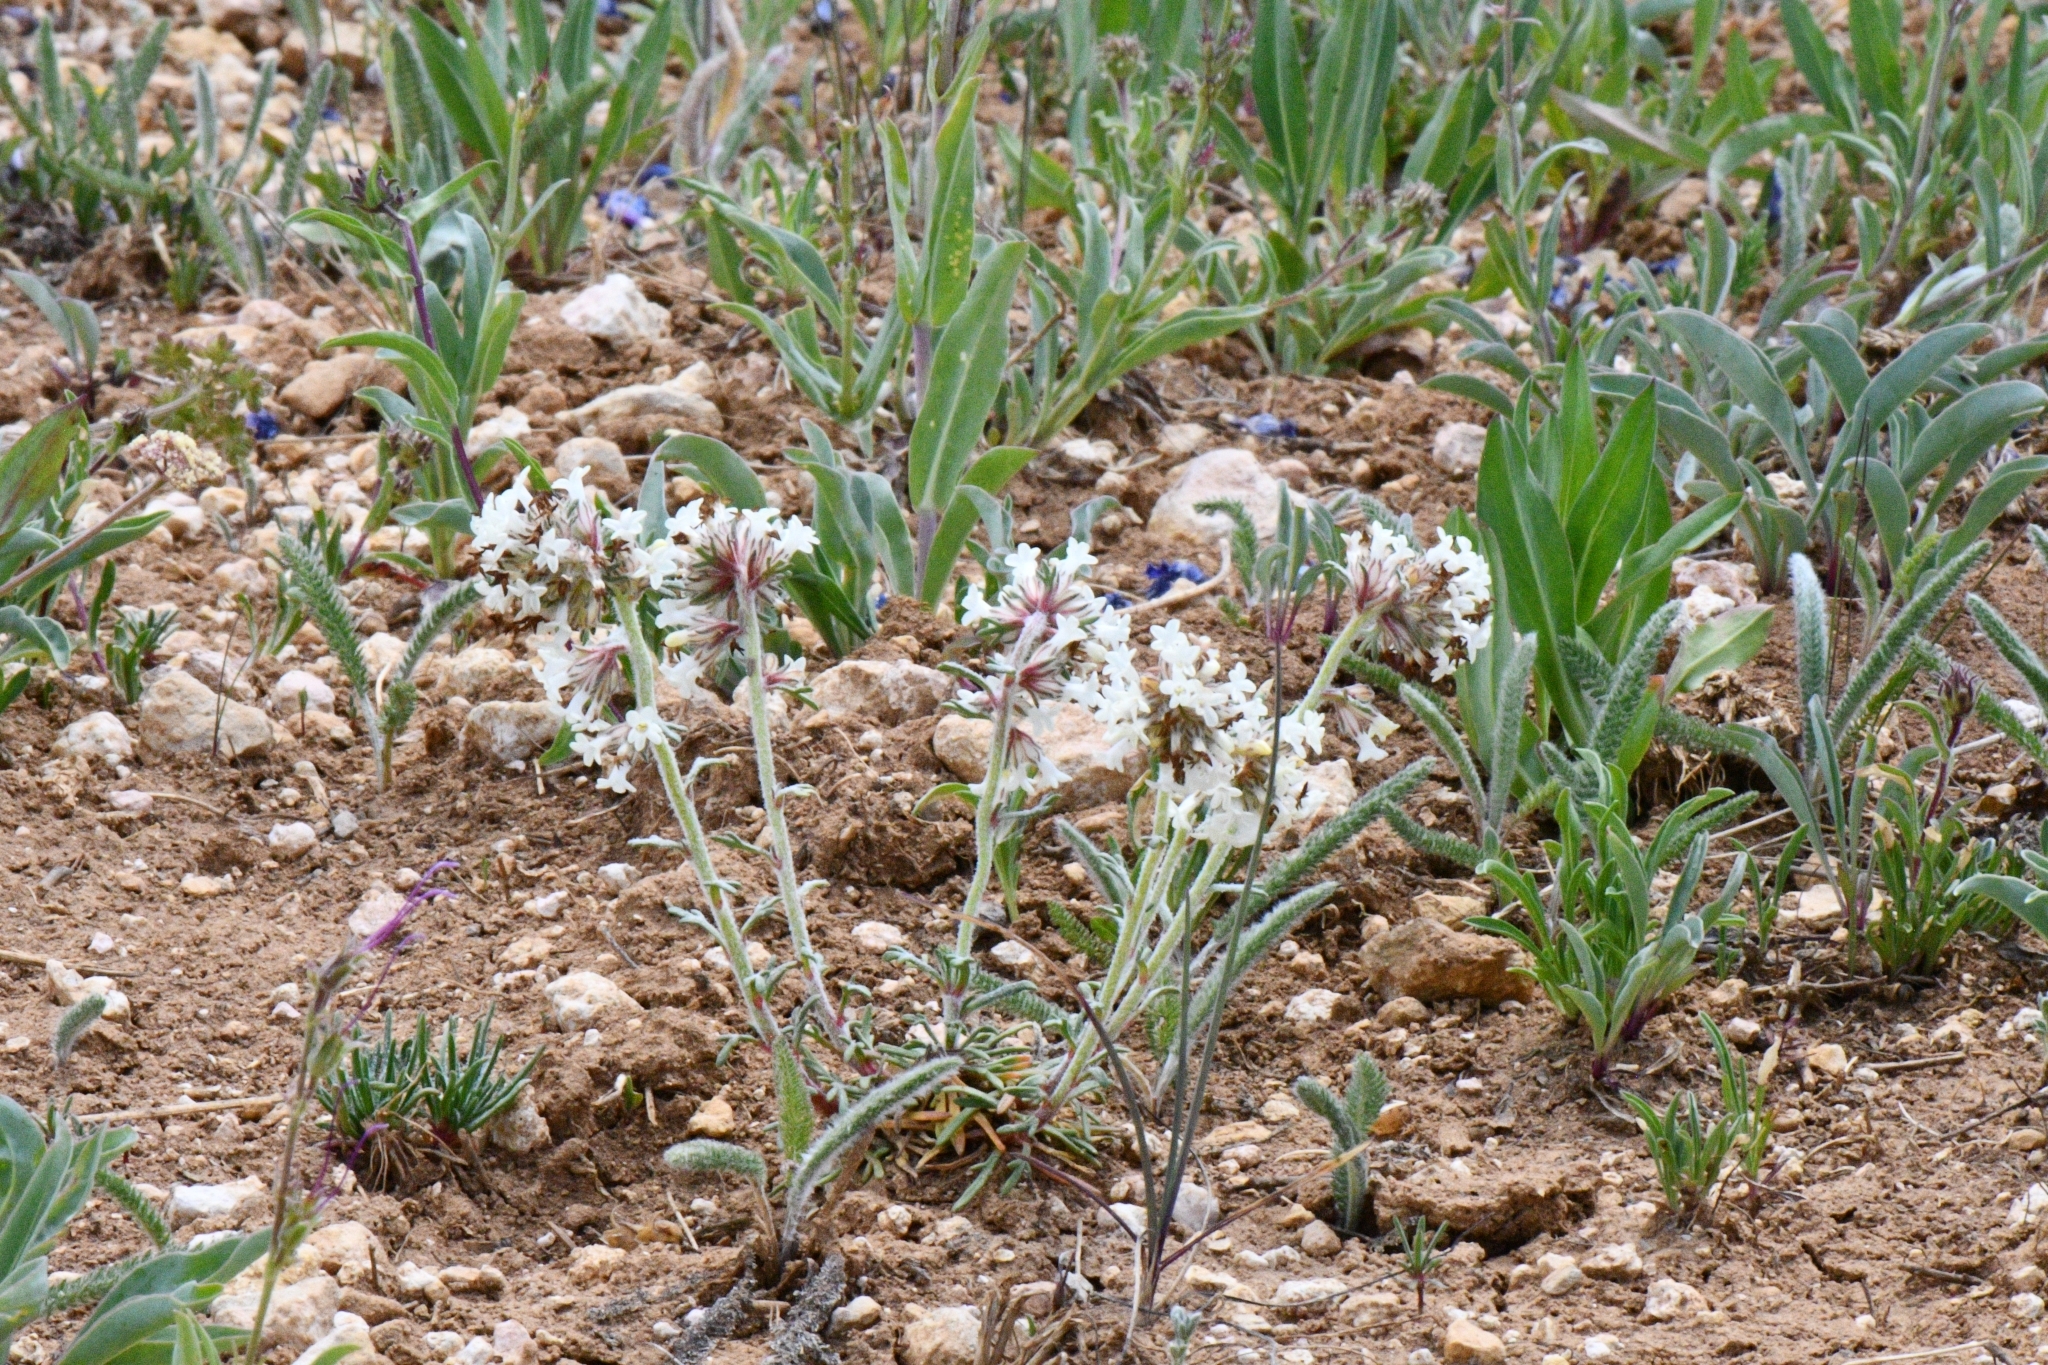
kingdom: Plantae
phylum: Tracheophyta
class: Magnoliopsida
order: Ericales
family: Polemoniaceae
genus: Ipomopsis
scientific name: Ipomopsis spicata
